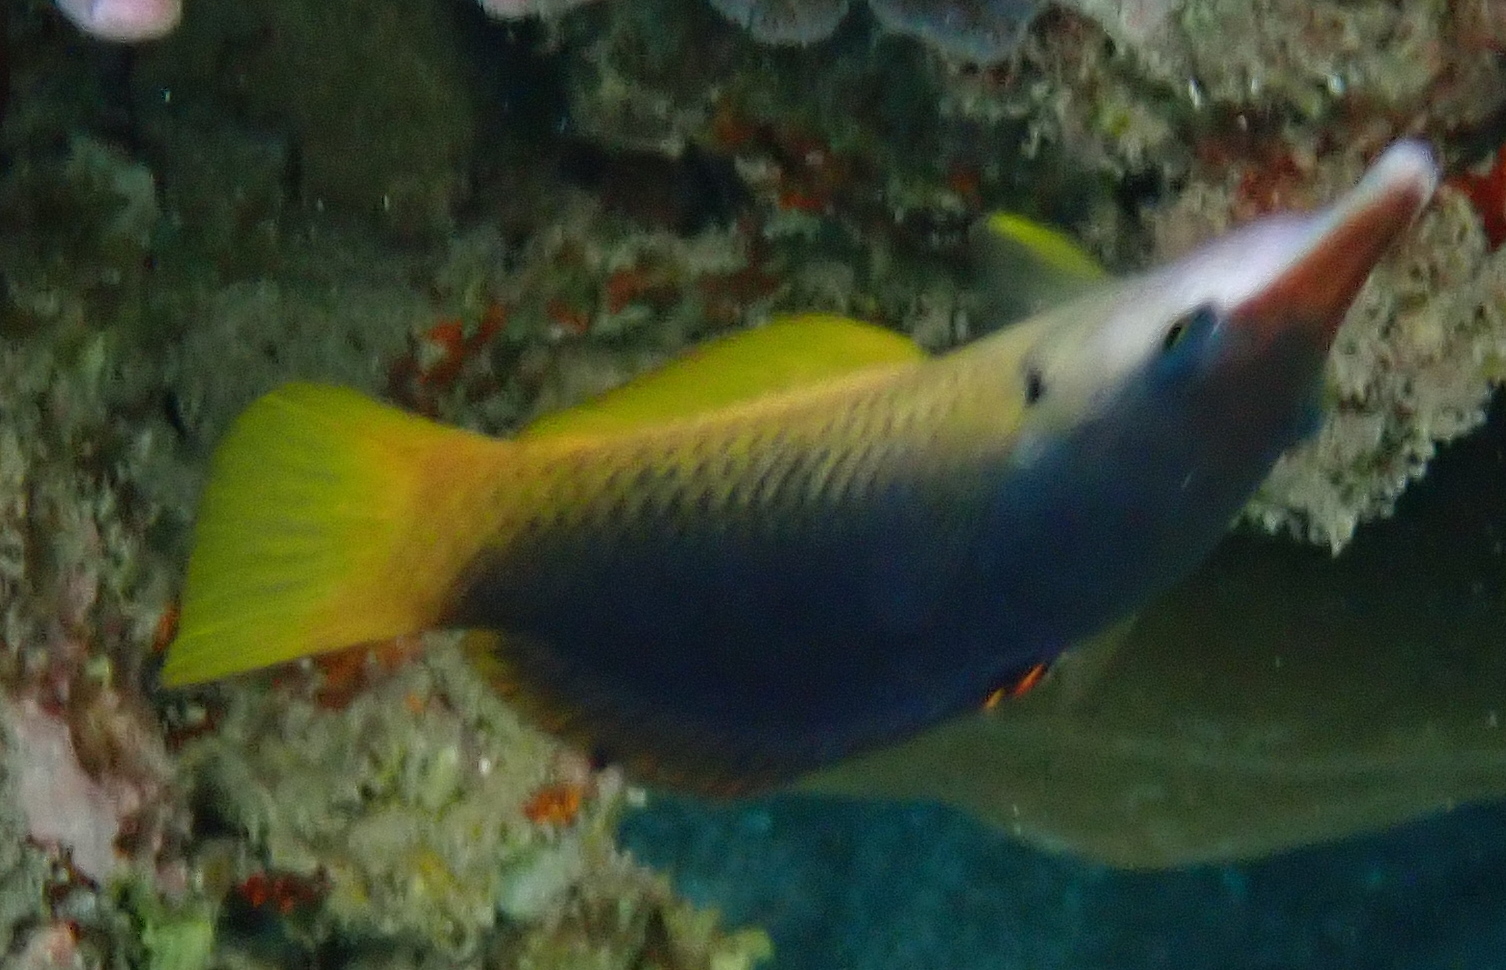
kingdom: Animalia
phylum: Chordata
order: Perciformes
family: Labridae
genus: Gomphosus
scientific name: Gomphosus klunzingeri
